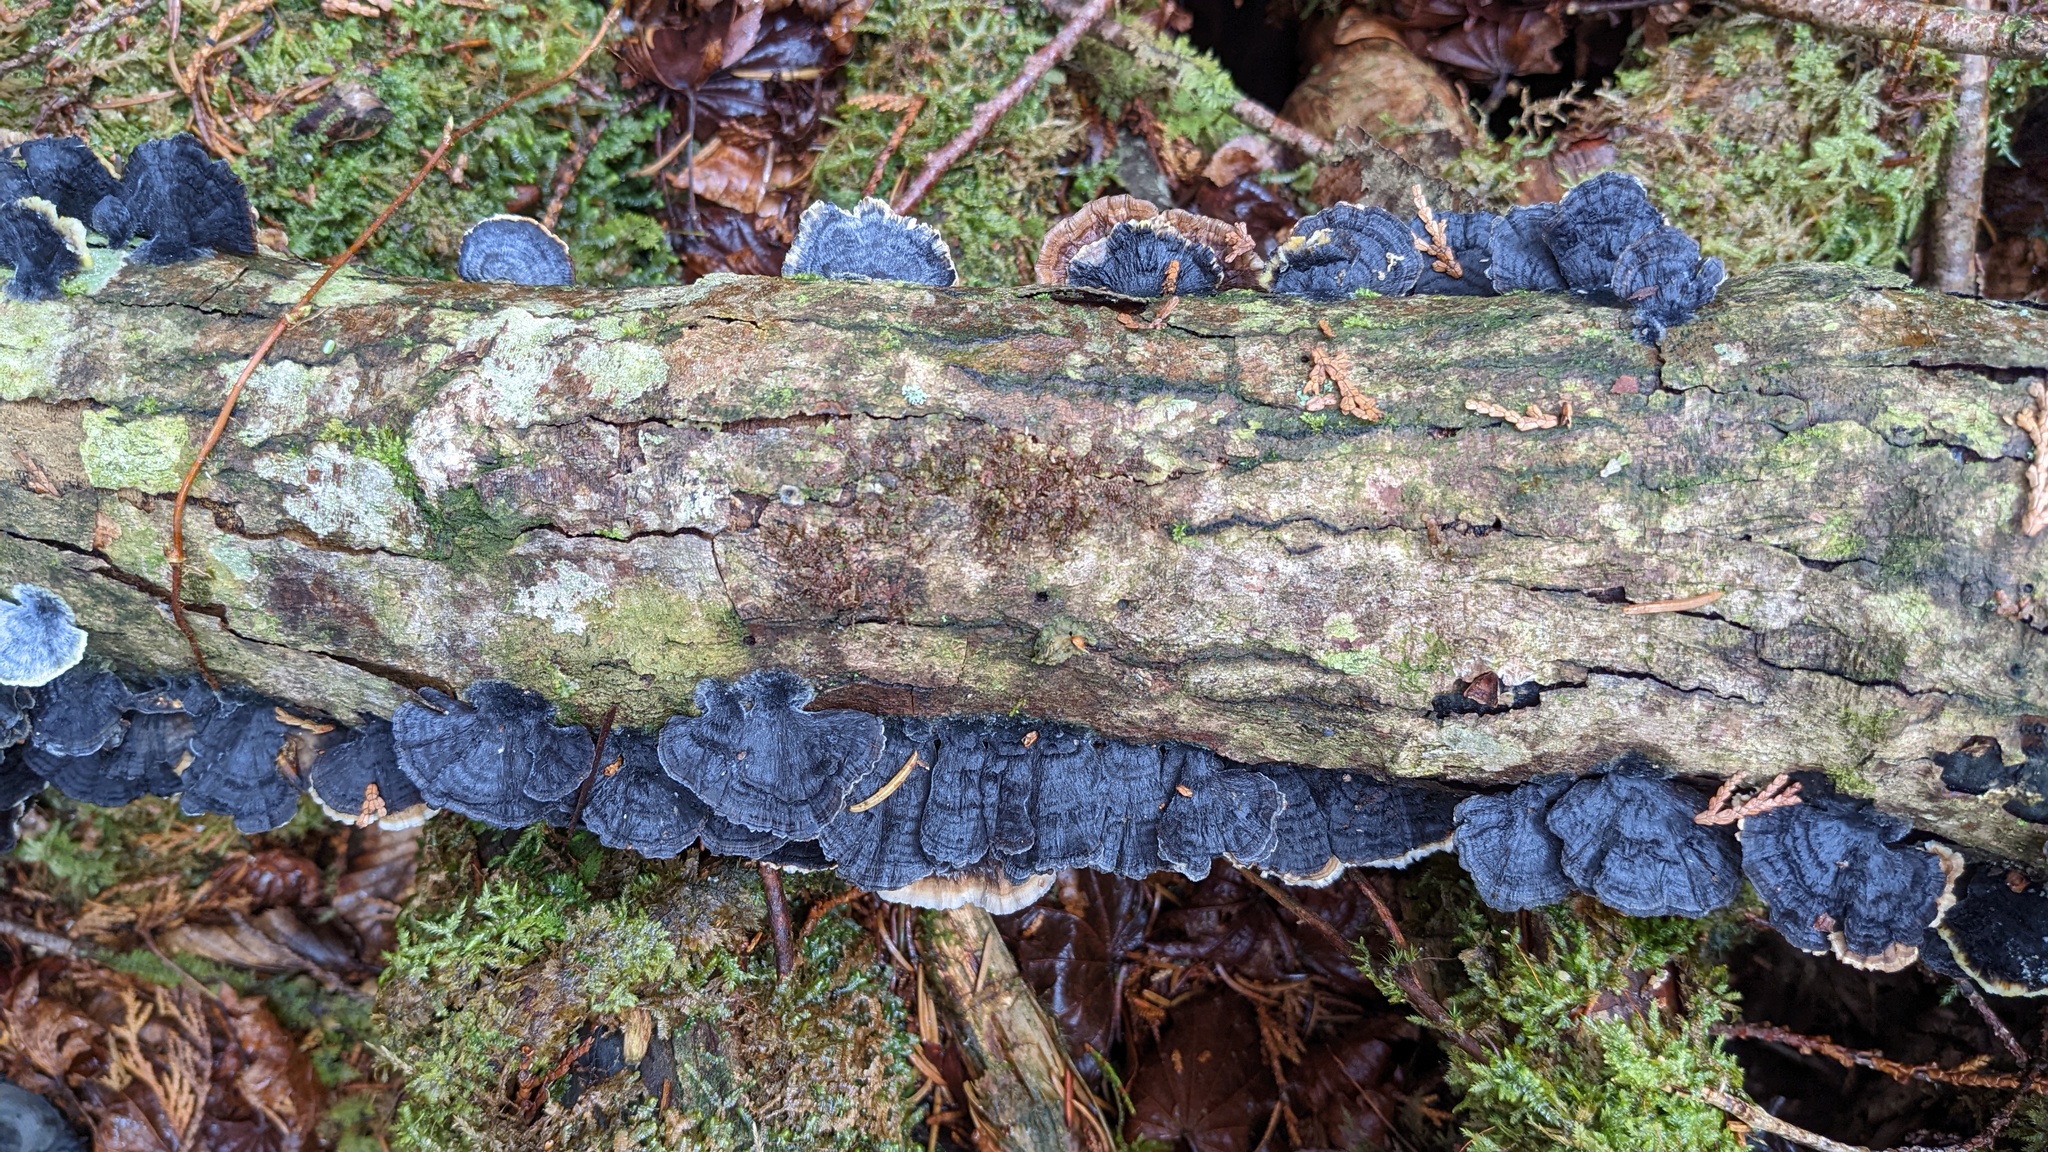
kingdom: Fungi
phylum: Basidiomycota
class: Agaricomycetes
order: Polyporales
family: Polyporaceae
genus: Trametes
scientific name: Trametes versicolor
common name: Turkeytail
